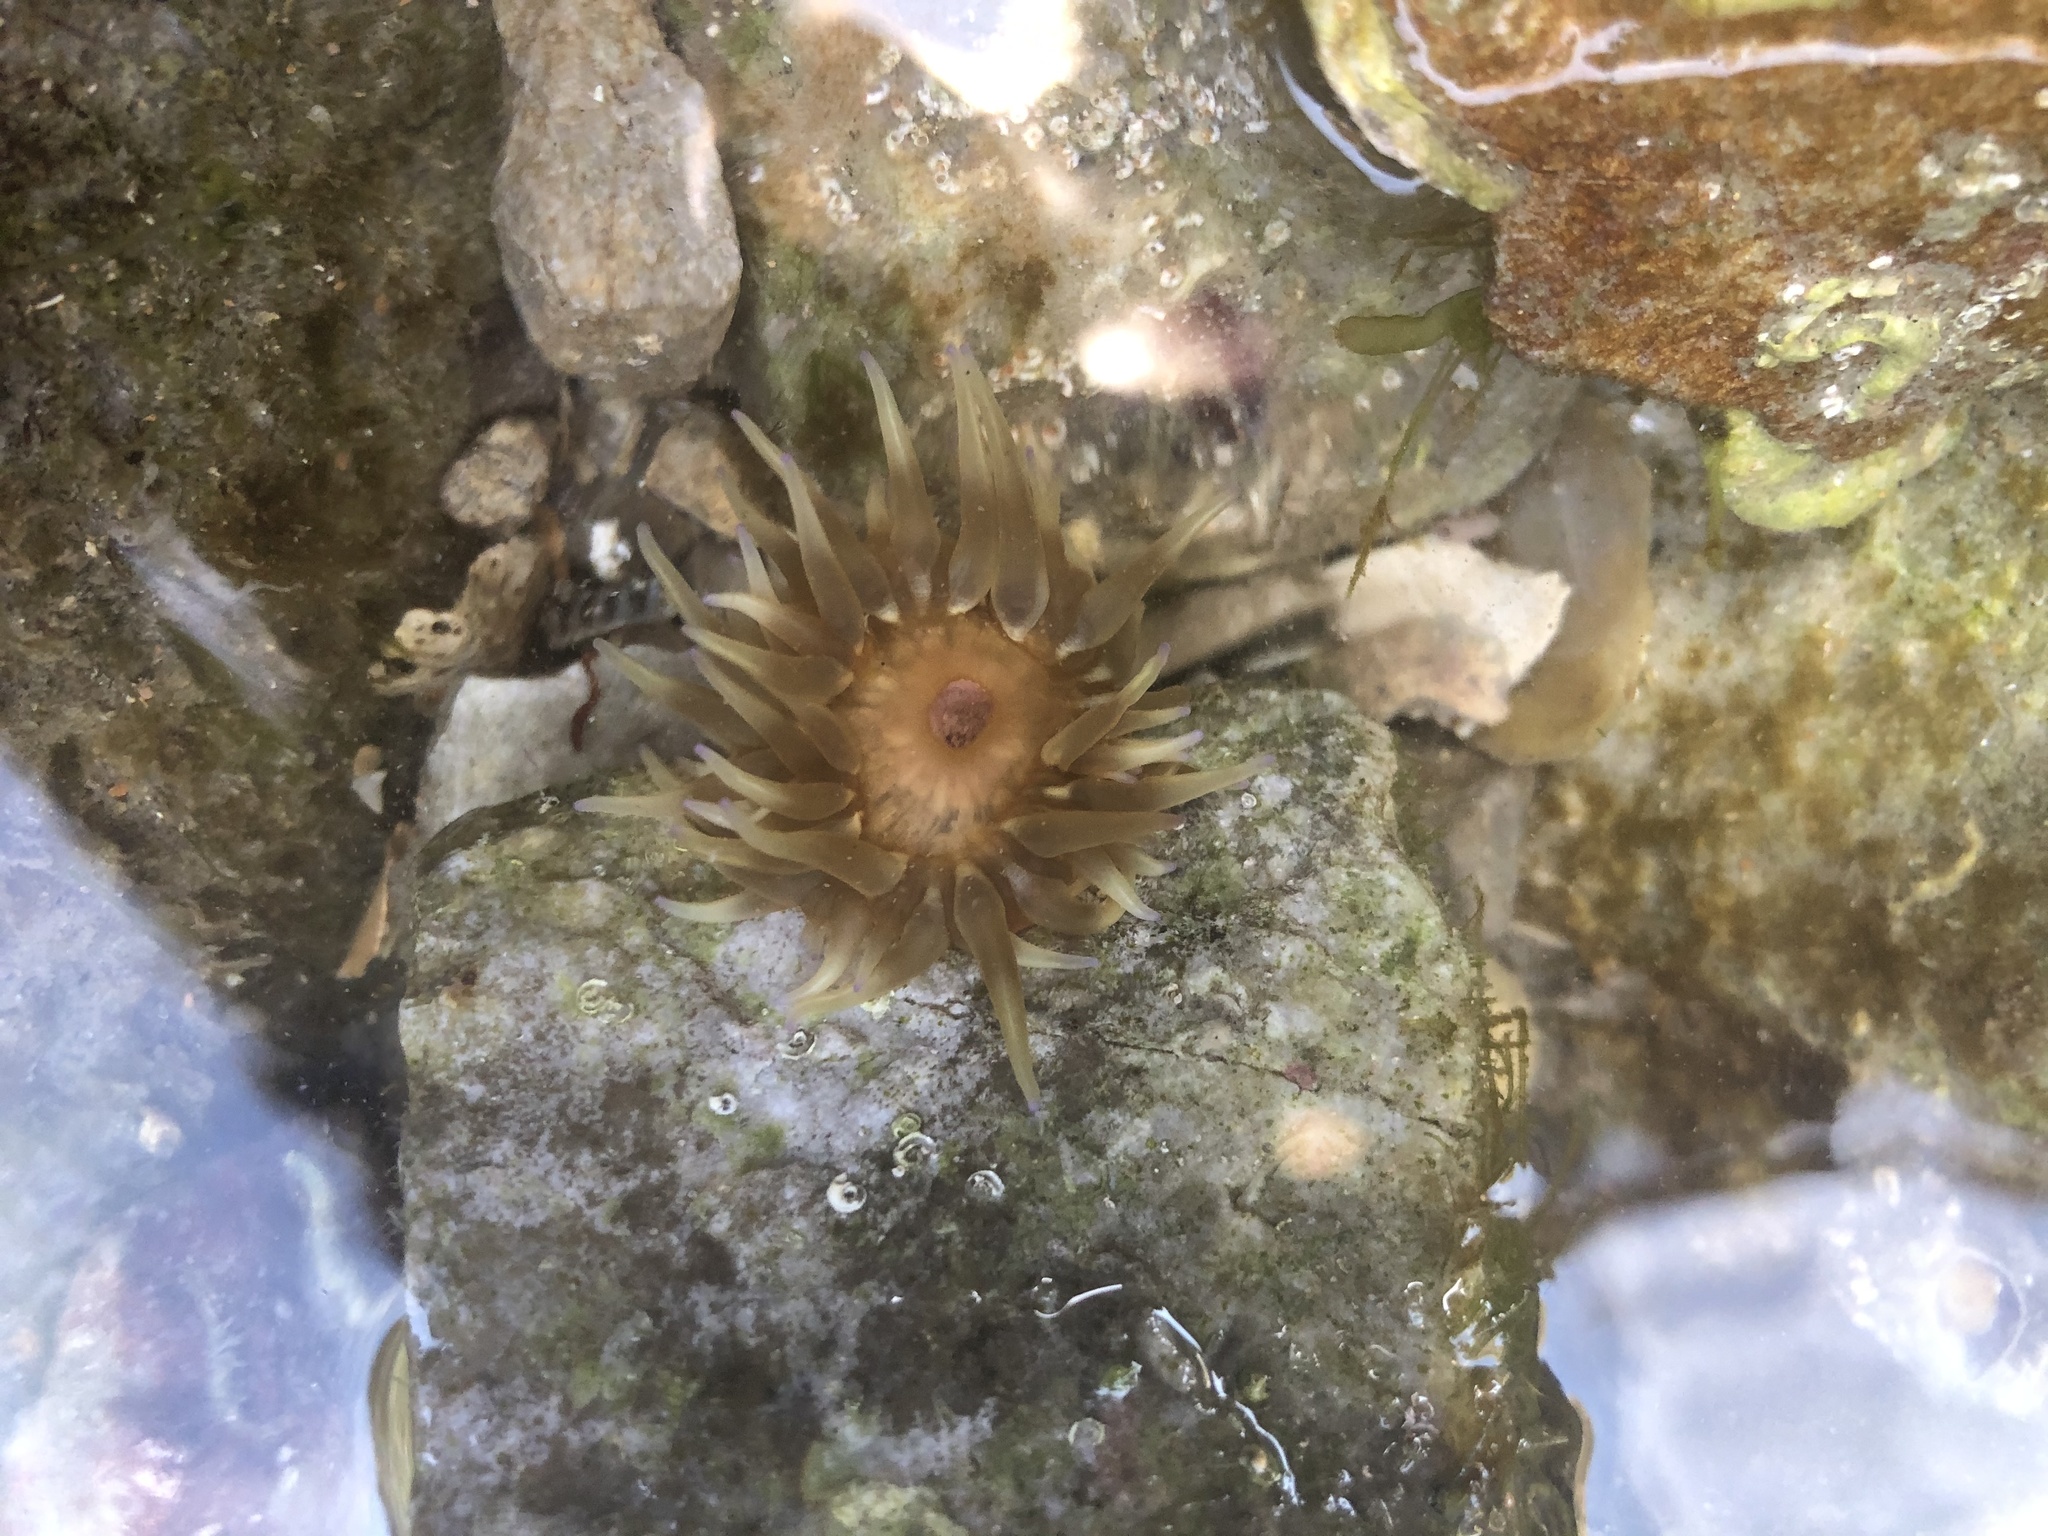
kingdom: Animalia
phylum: Cnidaria
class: Anthozoa
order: Actiniaria
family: Actiniidae
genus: Anemonia
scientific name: Anemonia sargassensis
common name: Sargassum anemone
